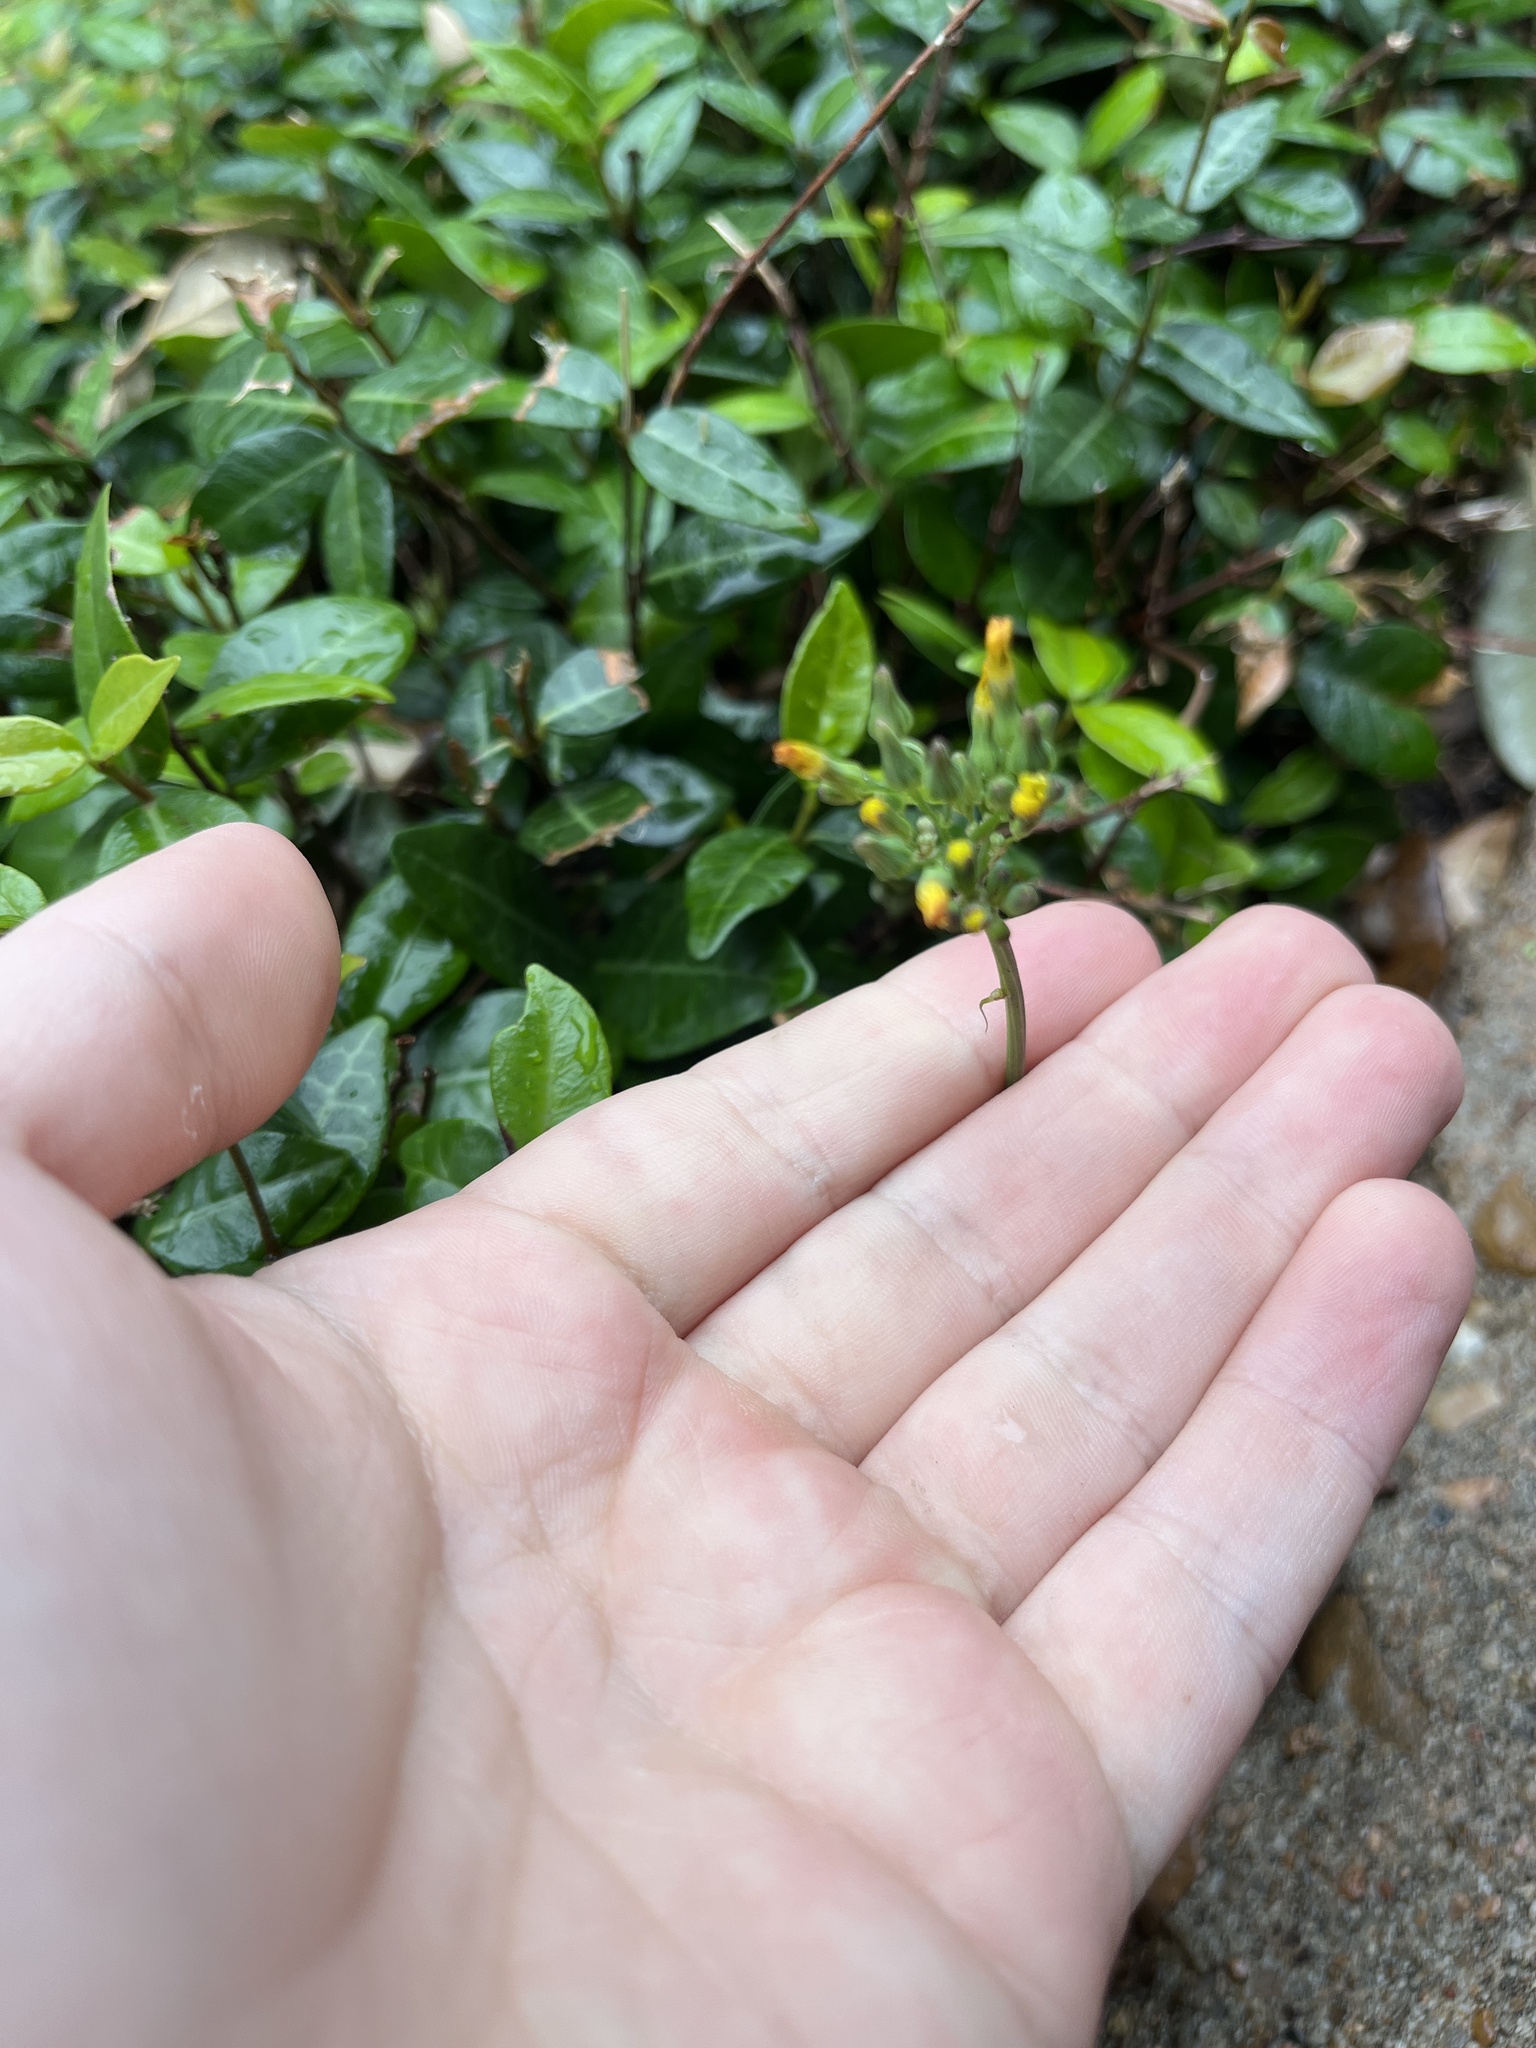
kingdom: Plantae
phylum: Tracheophyta
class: Magnoliopsida
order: Asterales
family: Asteraceae
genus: Youngia
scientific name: Youngia japonica
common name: Oriental false hawksbeard
